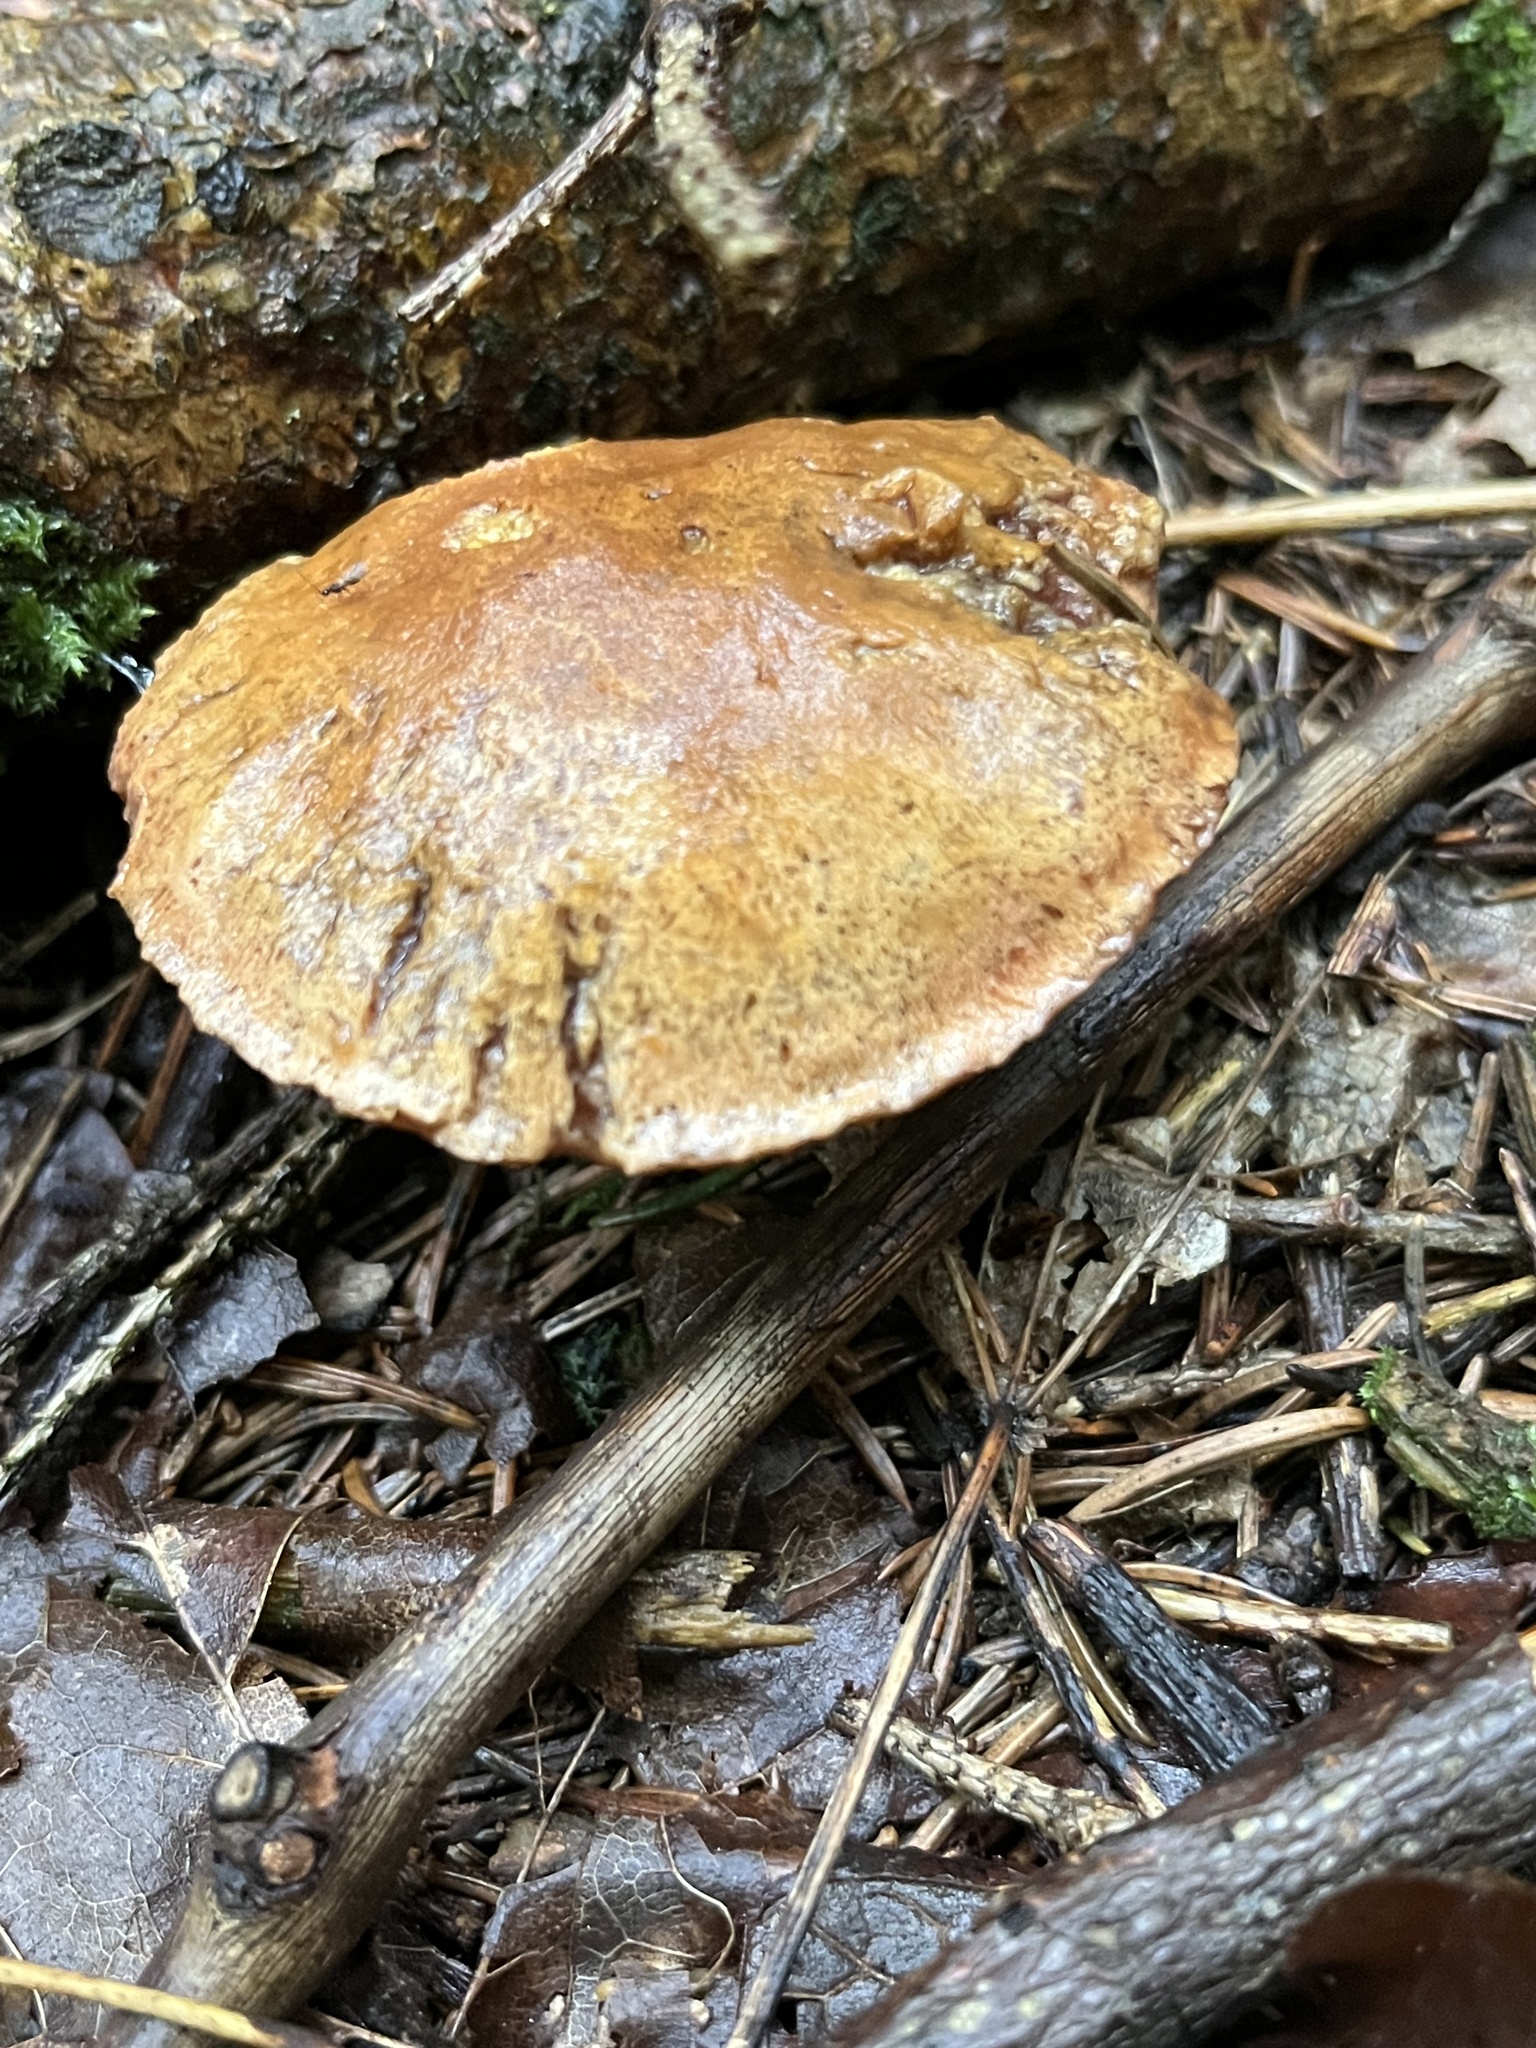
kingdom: Fungi
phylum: Basidiomycota
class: Agaricomycetes
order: Boletales
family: Boletaceae
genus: Chalciporus
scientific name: Chalciporus piperatus
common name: Peppery bolete
